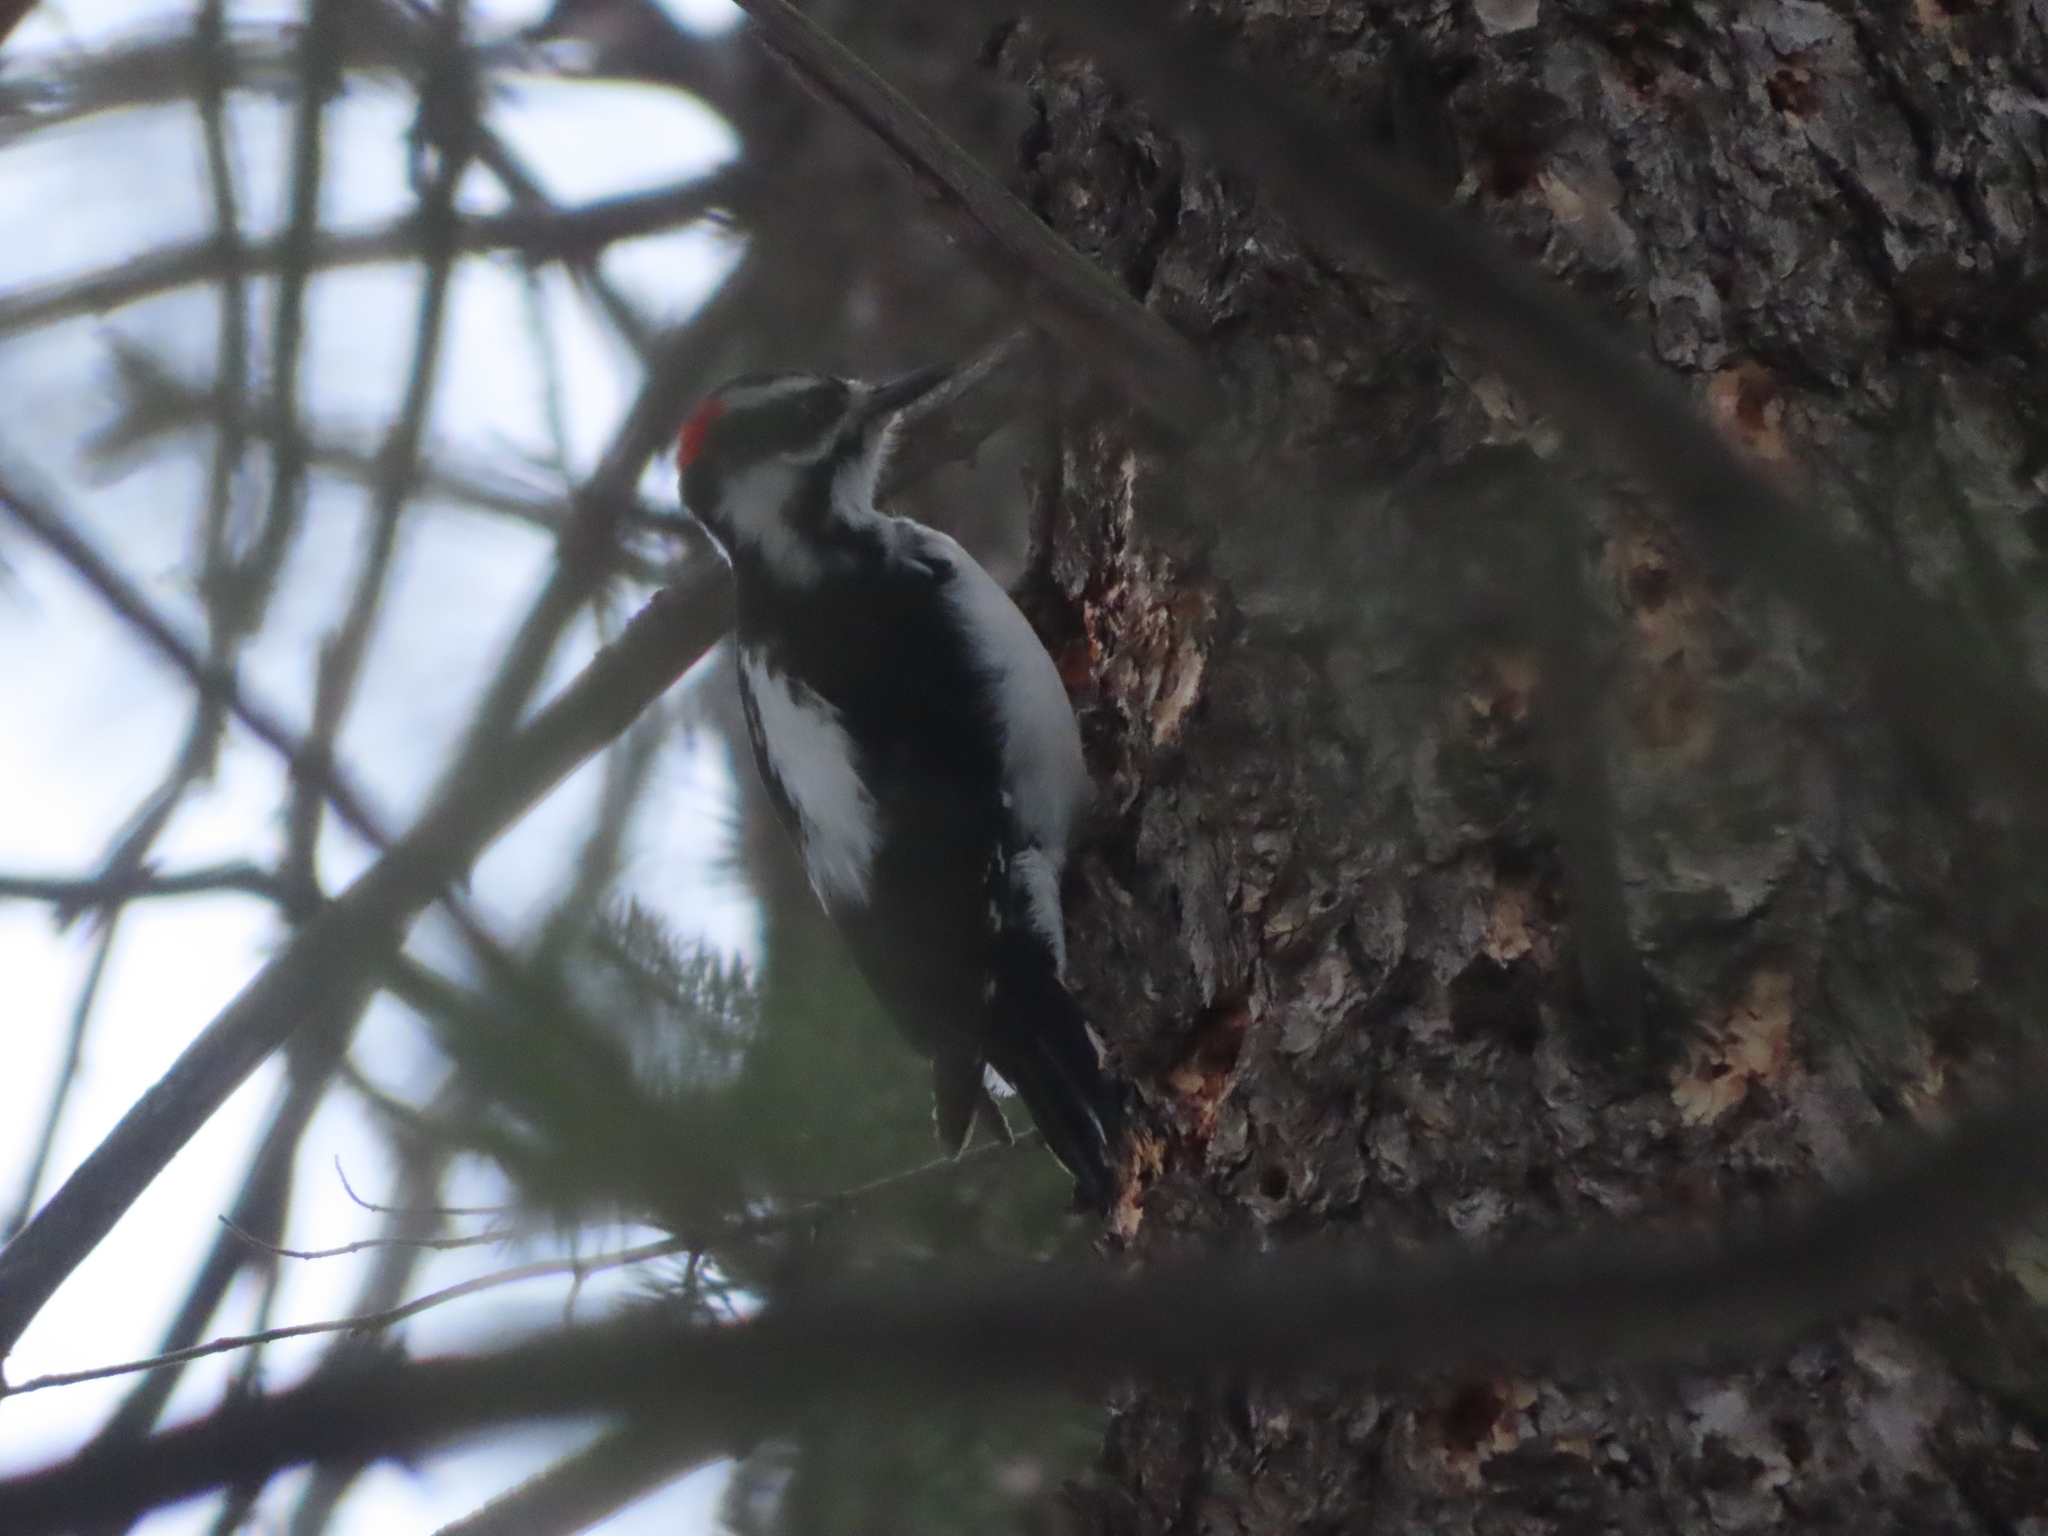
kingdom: Animalia
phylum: Chordata
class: Aves
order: Piciformes
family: Picidae
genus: Leuconotopicus
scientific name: Leuconotopicus villosus
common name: Hairy woodpecker
